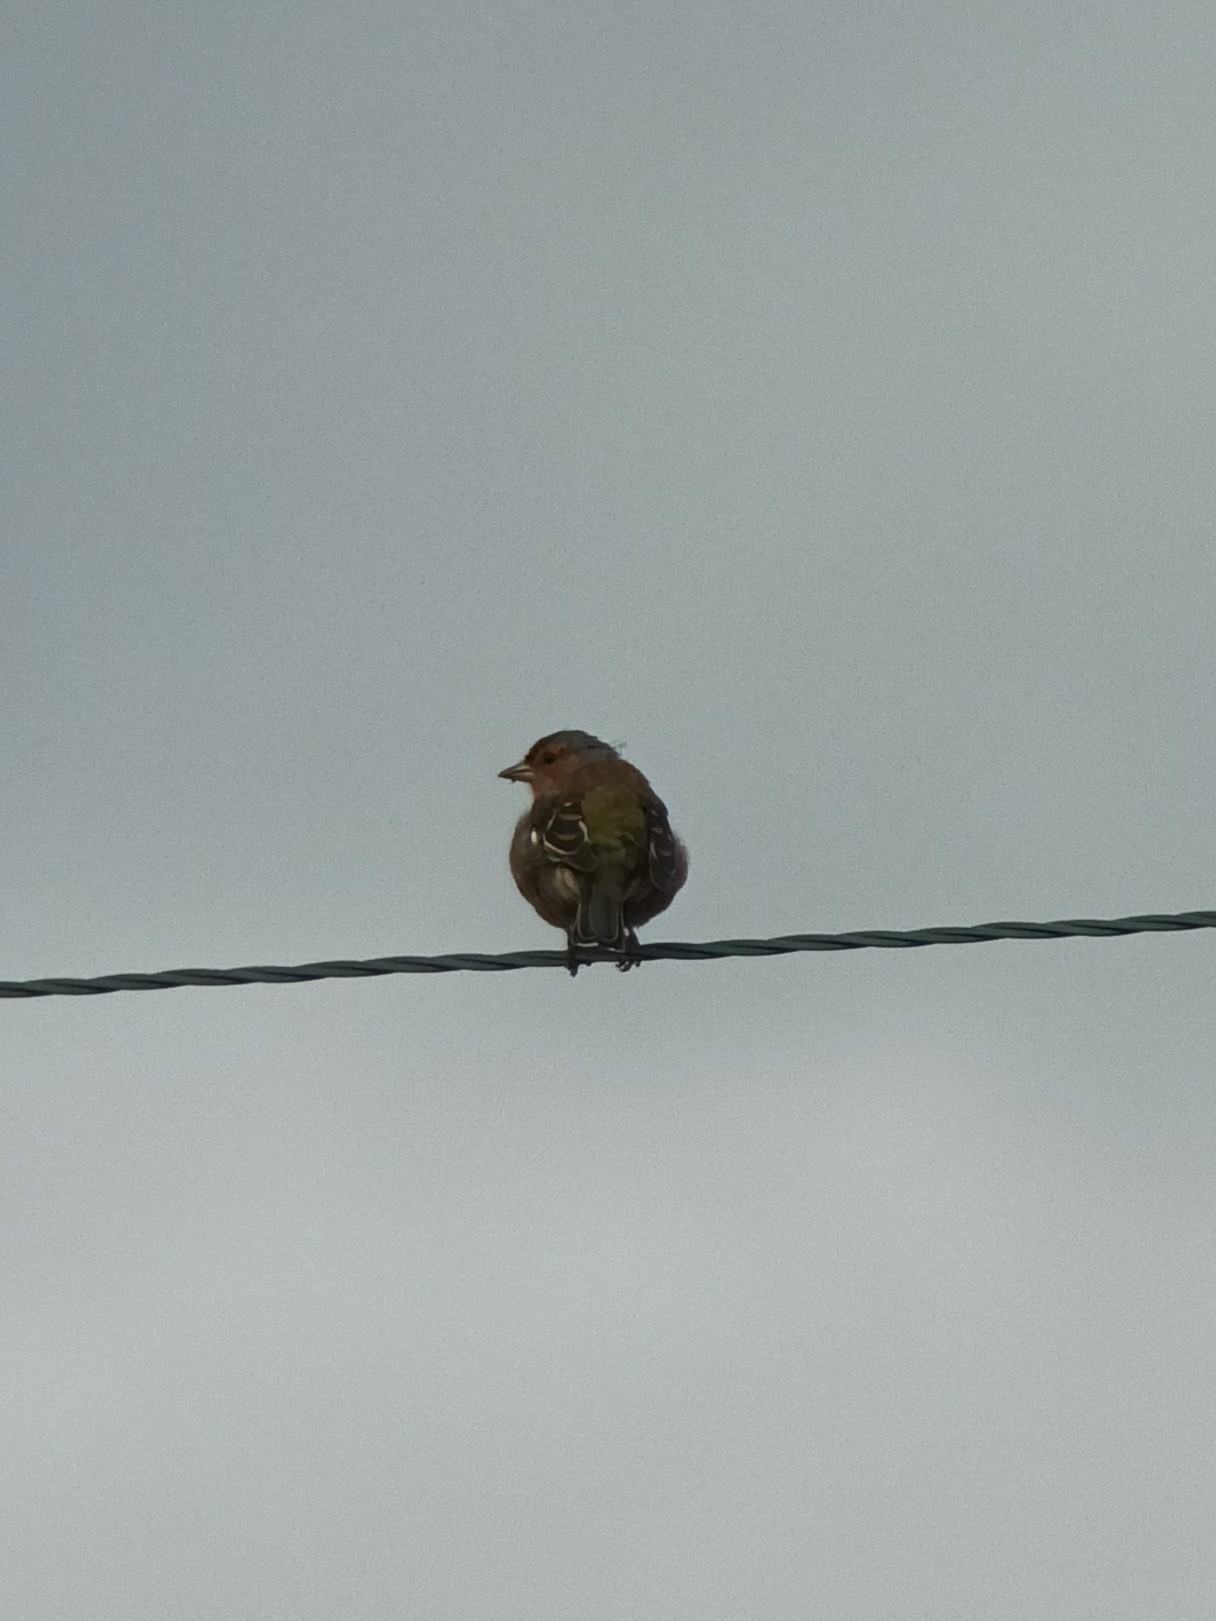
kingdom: Animalia
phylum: Chordata
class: Aves
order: Passeriformes
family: Fringillidae
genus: Fringilla
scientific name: Fringilla coelebs
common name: Common chaffinch
